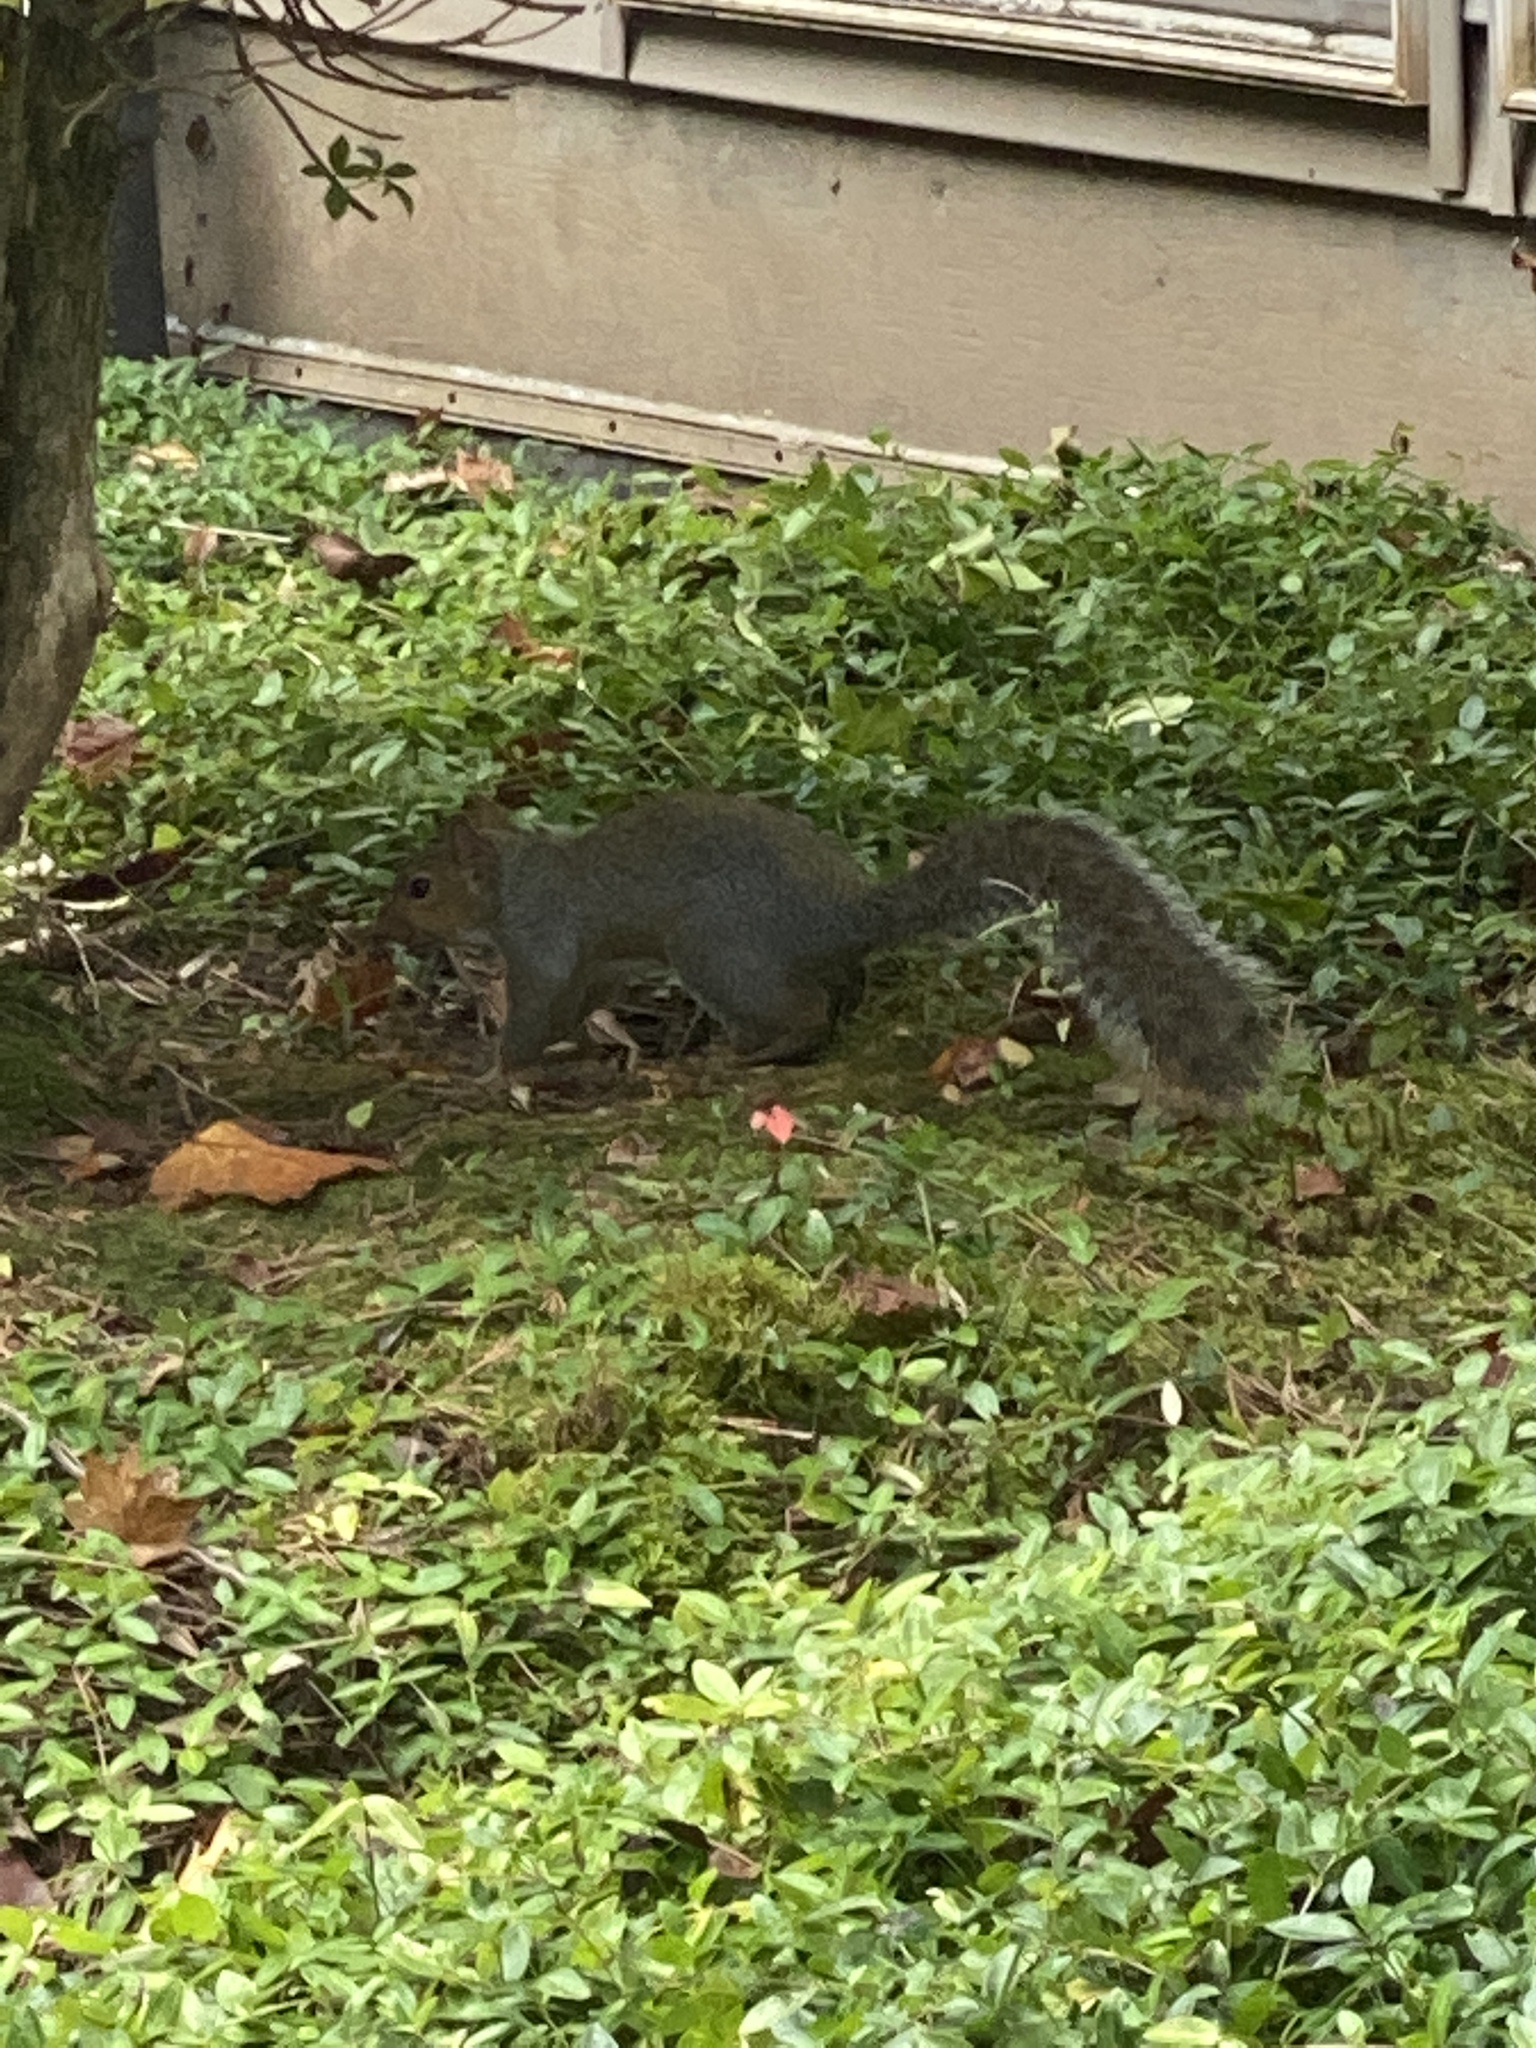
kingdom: Animalia
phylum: Chordata
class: Mammalia
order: Rodentia
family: Sciuridae
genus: Sciurus
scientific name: Sciurus carolinensis
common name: Eastern gray squirrel
